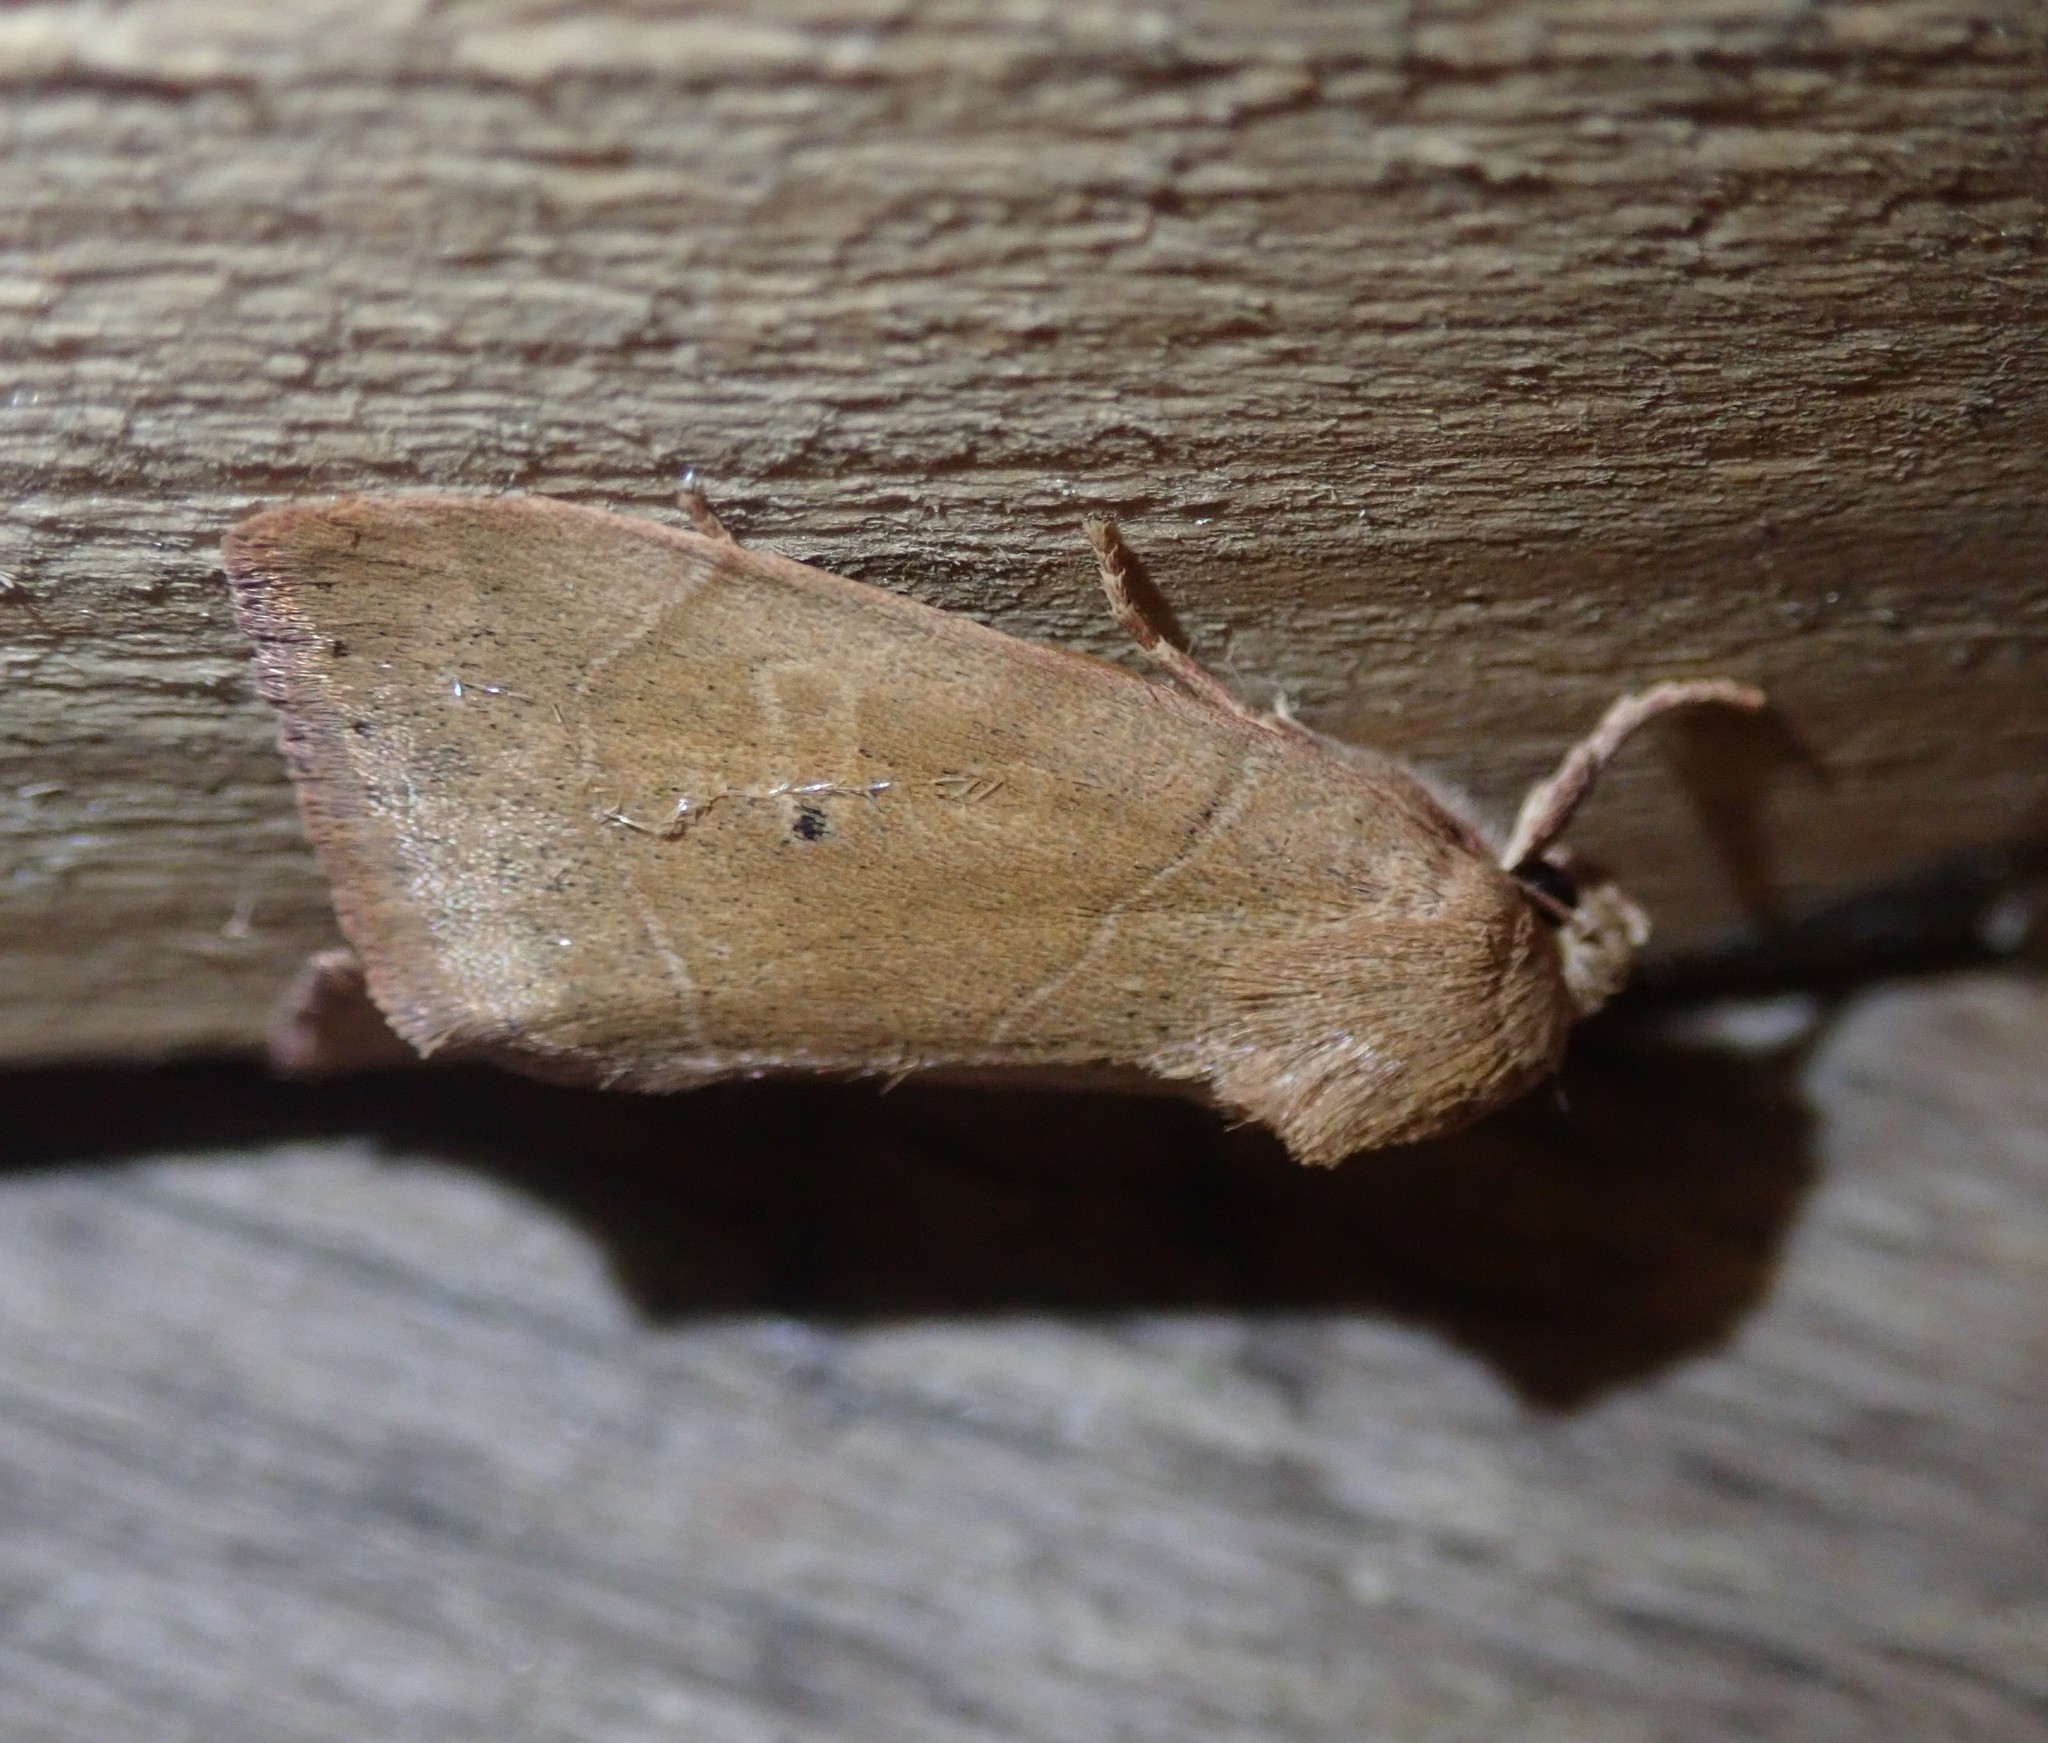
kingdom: Animalia
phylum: Arthropoda
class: Insecta
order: Lepidoptera
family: Noctuidae
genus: Cosmia
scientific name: Cosmia trapezina
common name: Dun-bar
